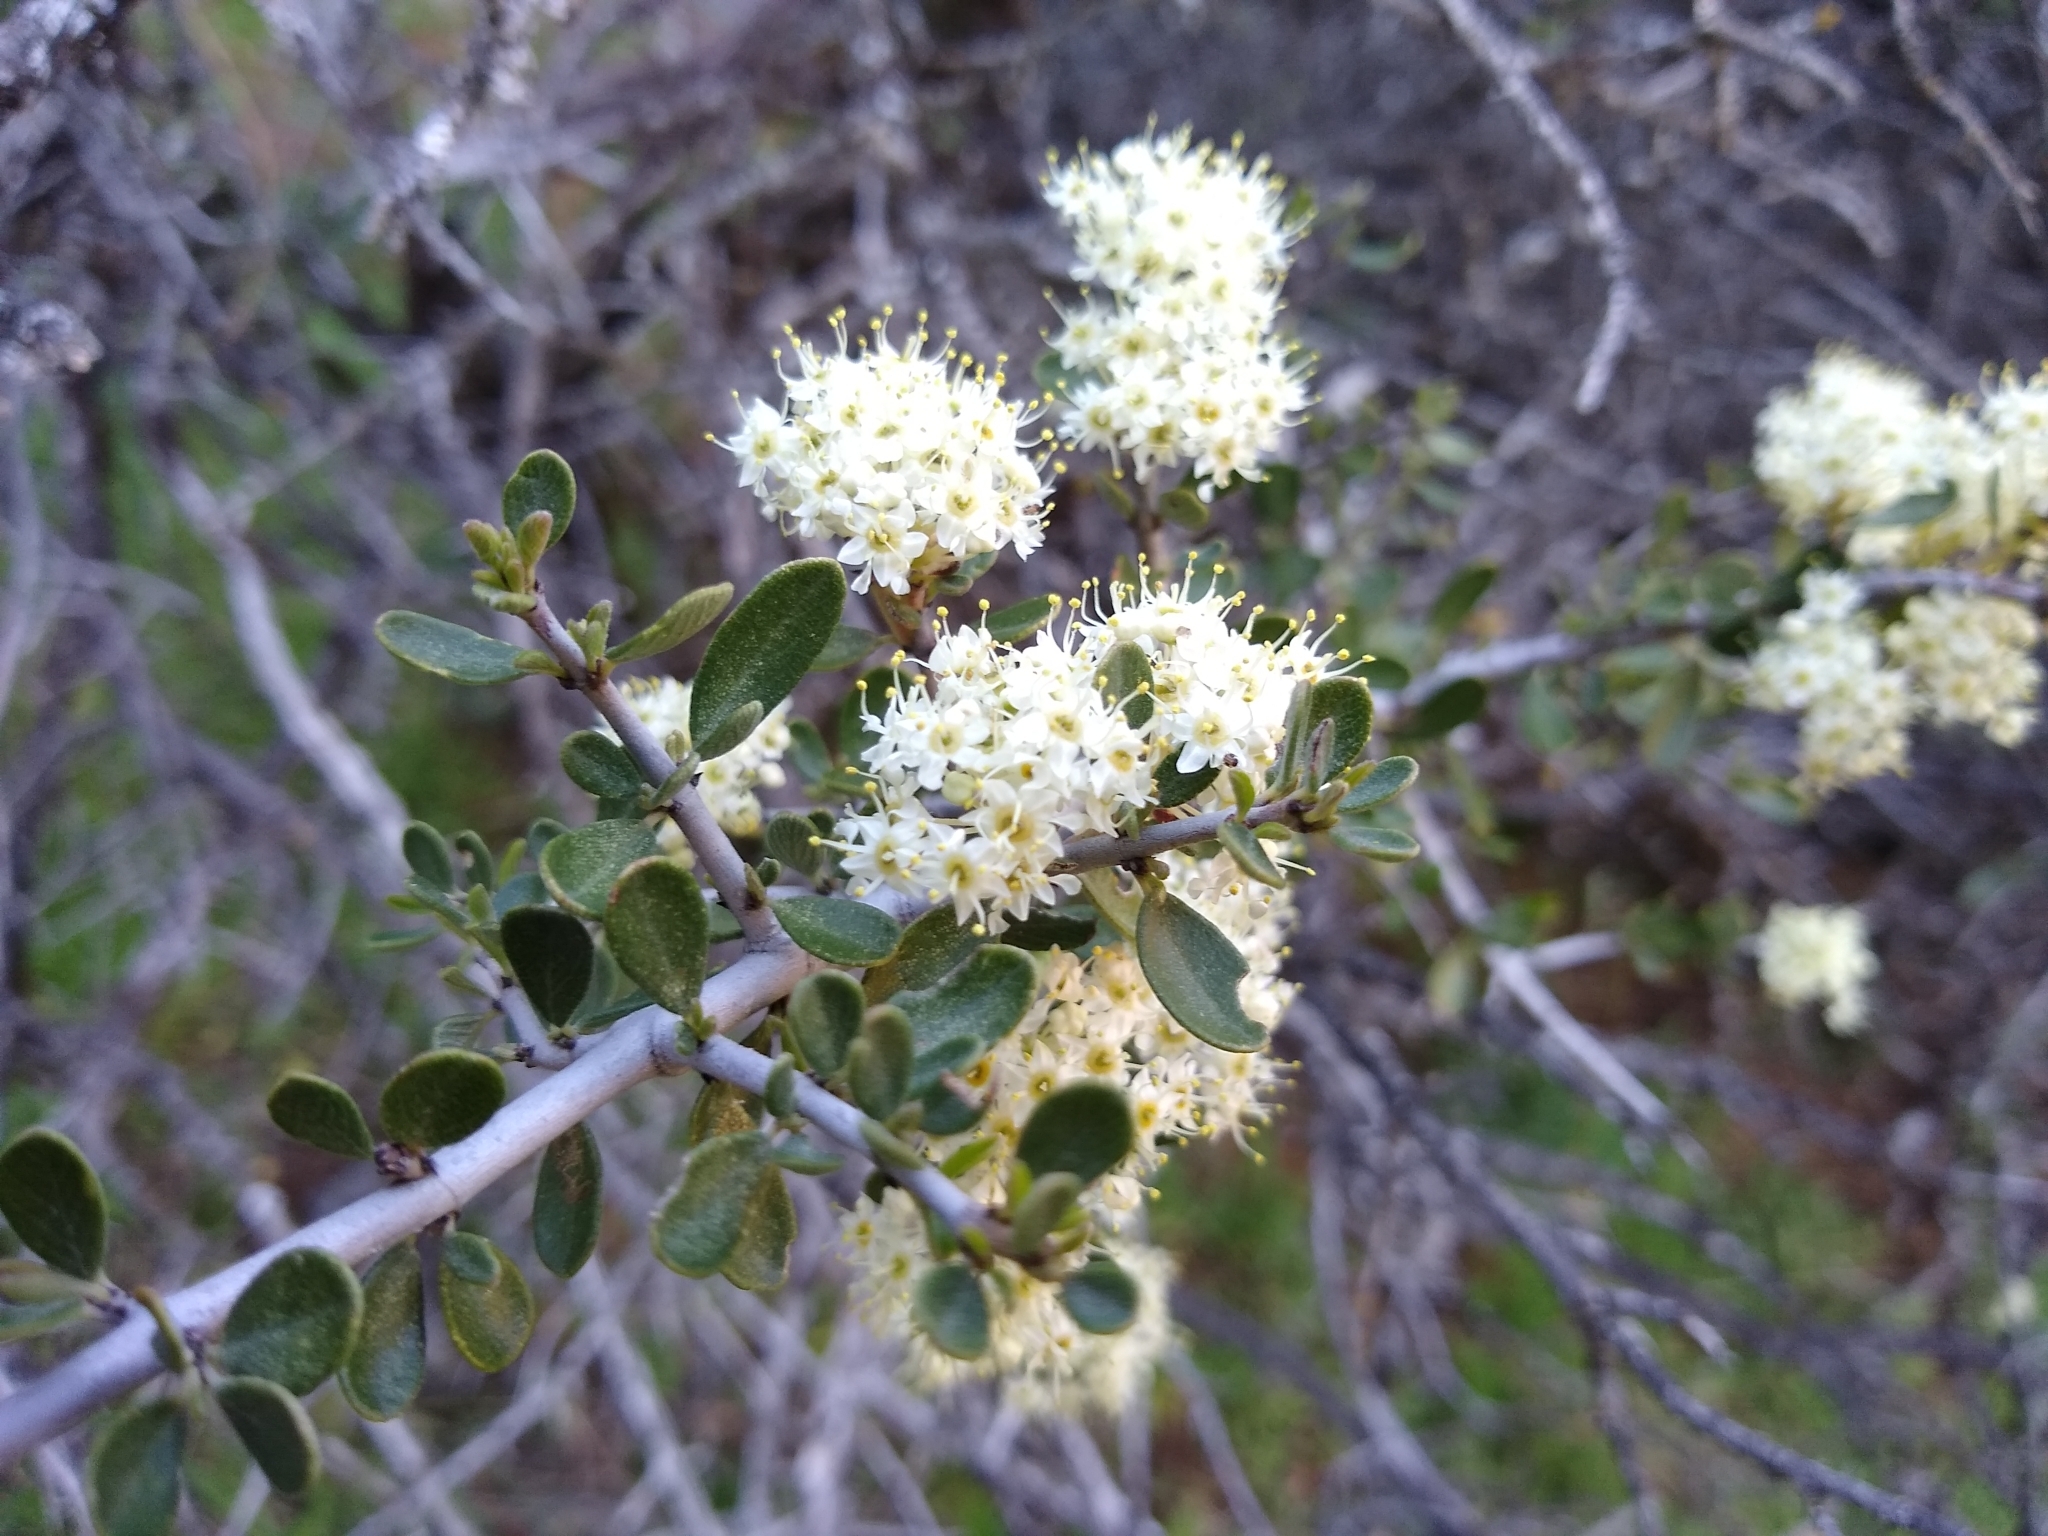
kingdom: Plantae
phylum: Tracheophyta
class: Magnoliopsida
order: Rosales
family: Rhamnaceae
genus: Ceanothus
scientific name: Ceanothus cuneatus
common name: Cuneate ceanothus
